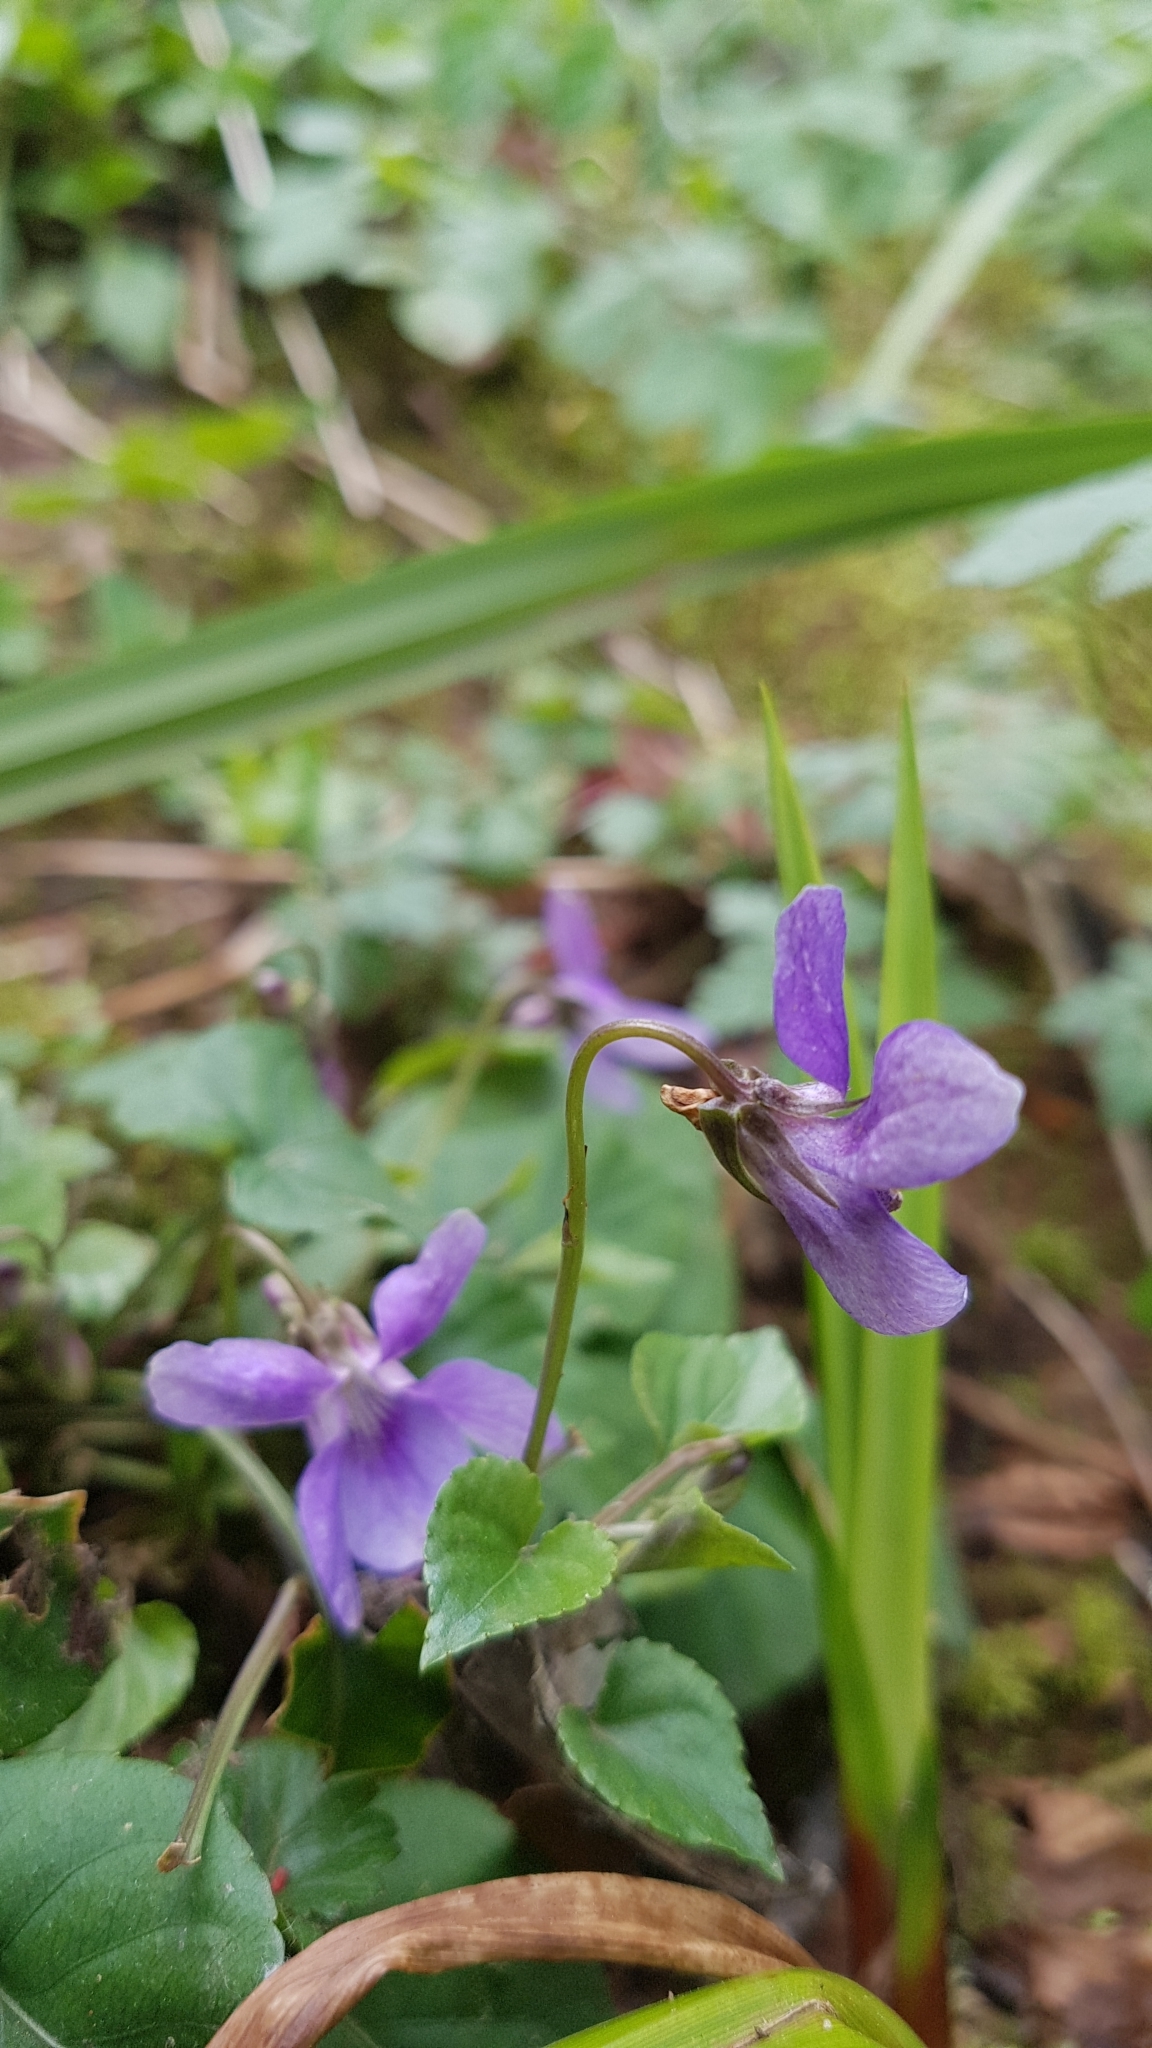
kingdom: Plantae
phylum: Tracheophyta
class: Magnoliopsida
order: Malpighiales
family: Violaceae
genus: Viola
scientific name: Viola reichenbachiana
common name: Early dog-violet
